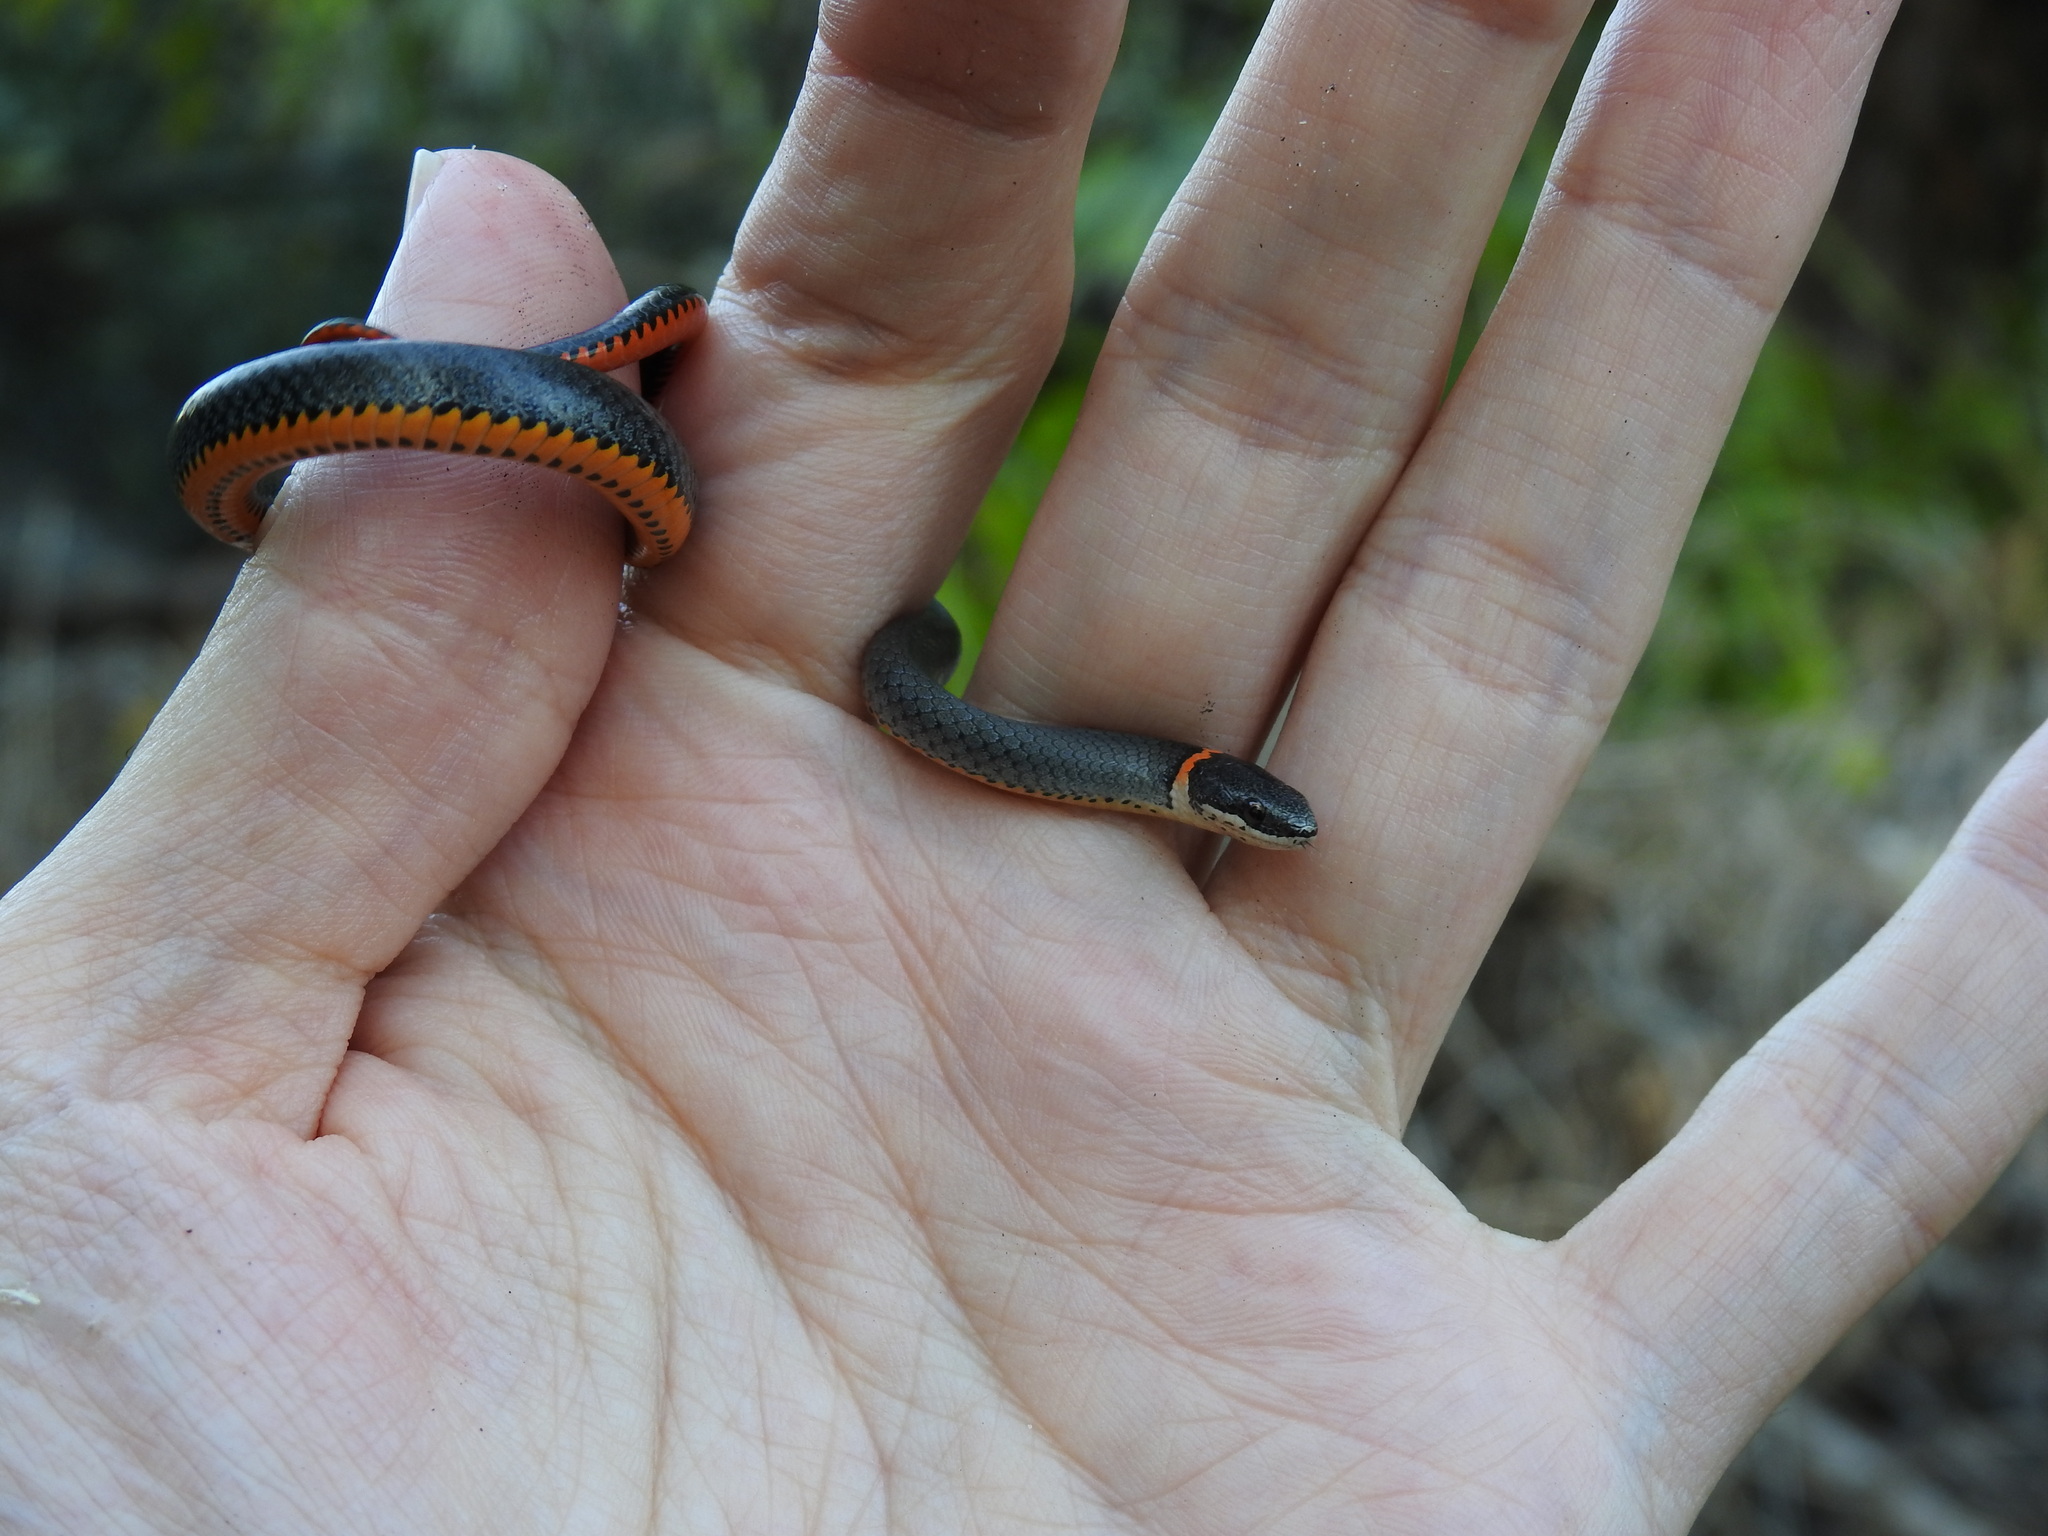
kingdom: Animalia
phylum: Chordata
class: Squamata
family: Colubridae
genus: Diadophis
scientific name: Diadophis punctatus
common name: Ringneck snake
